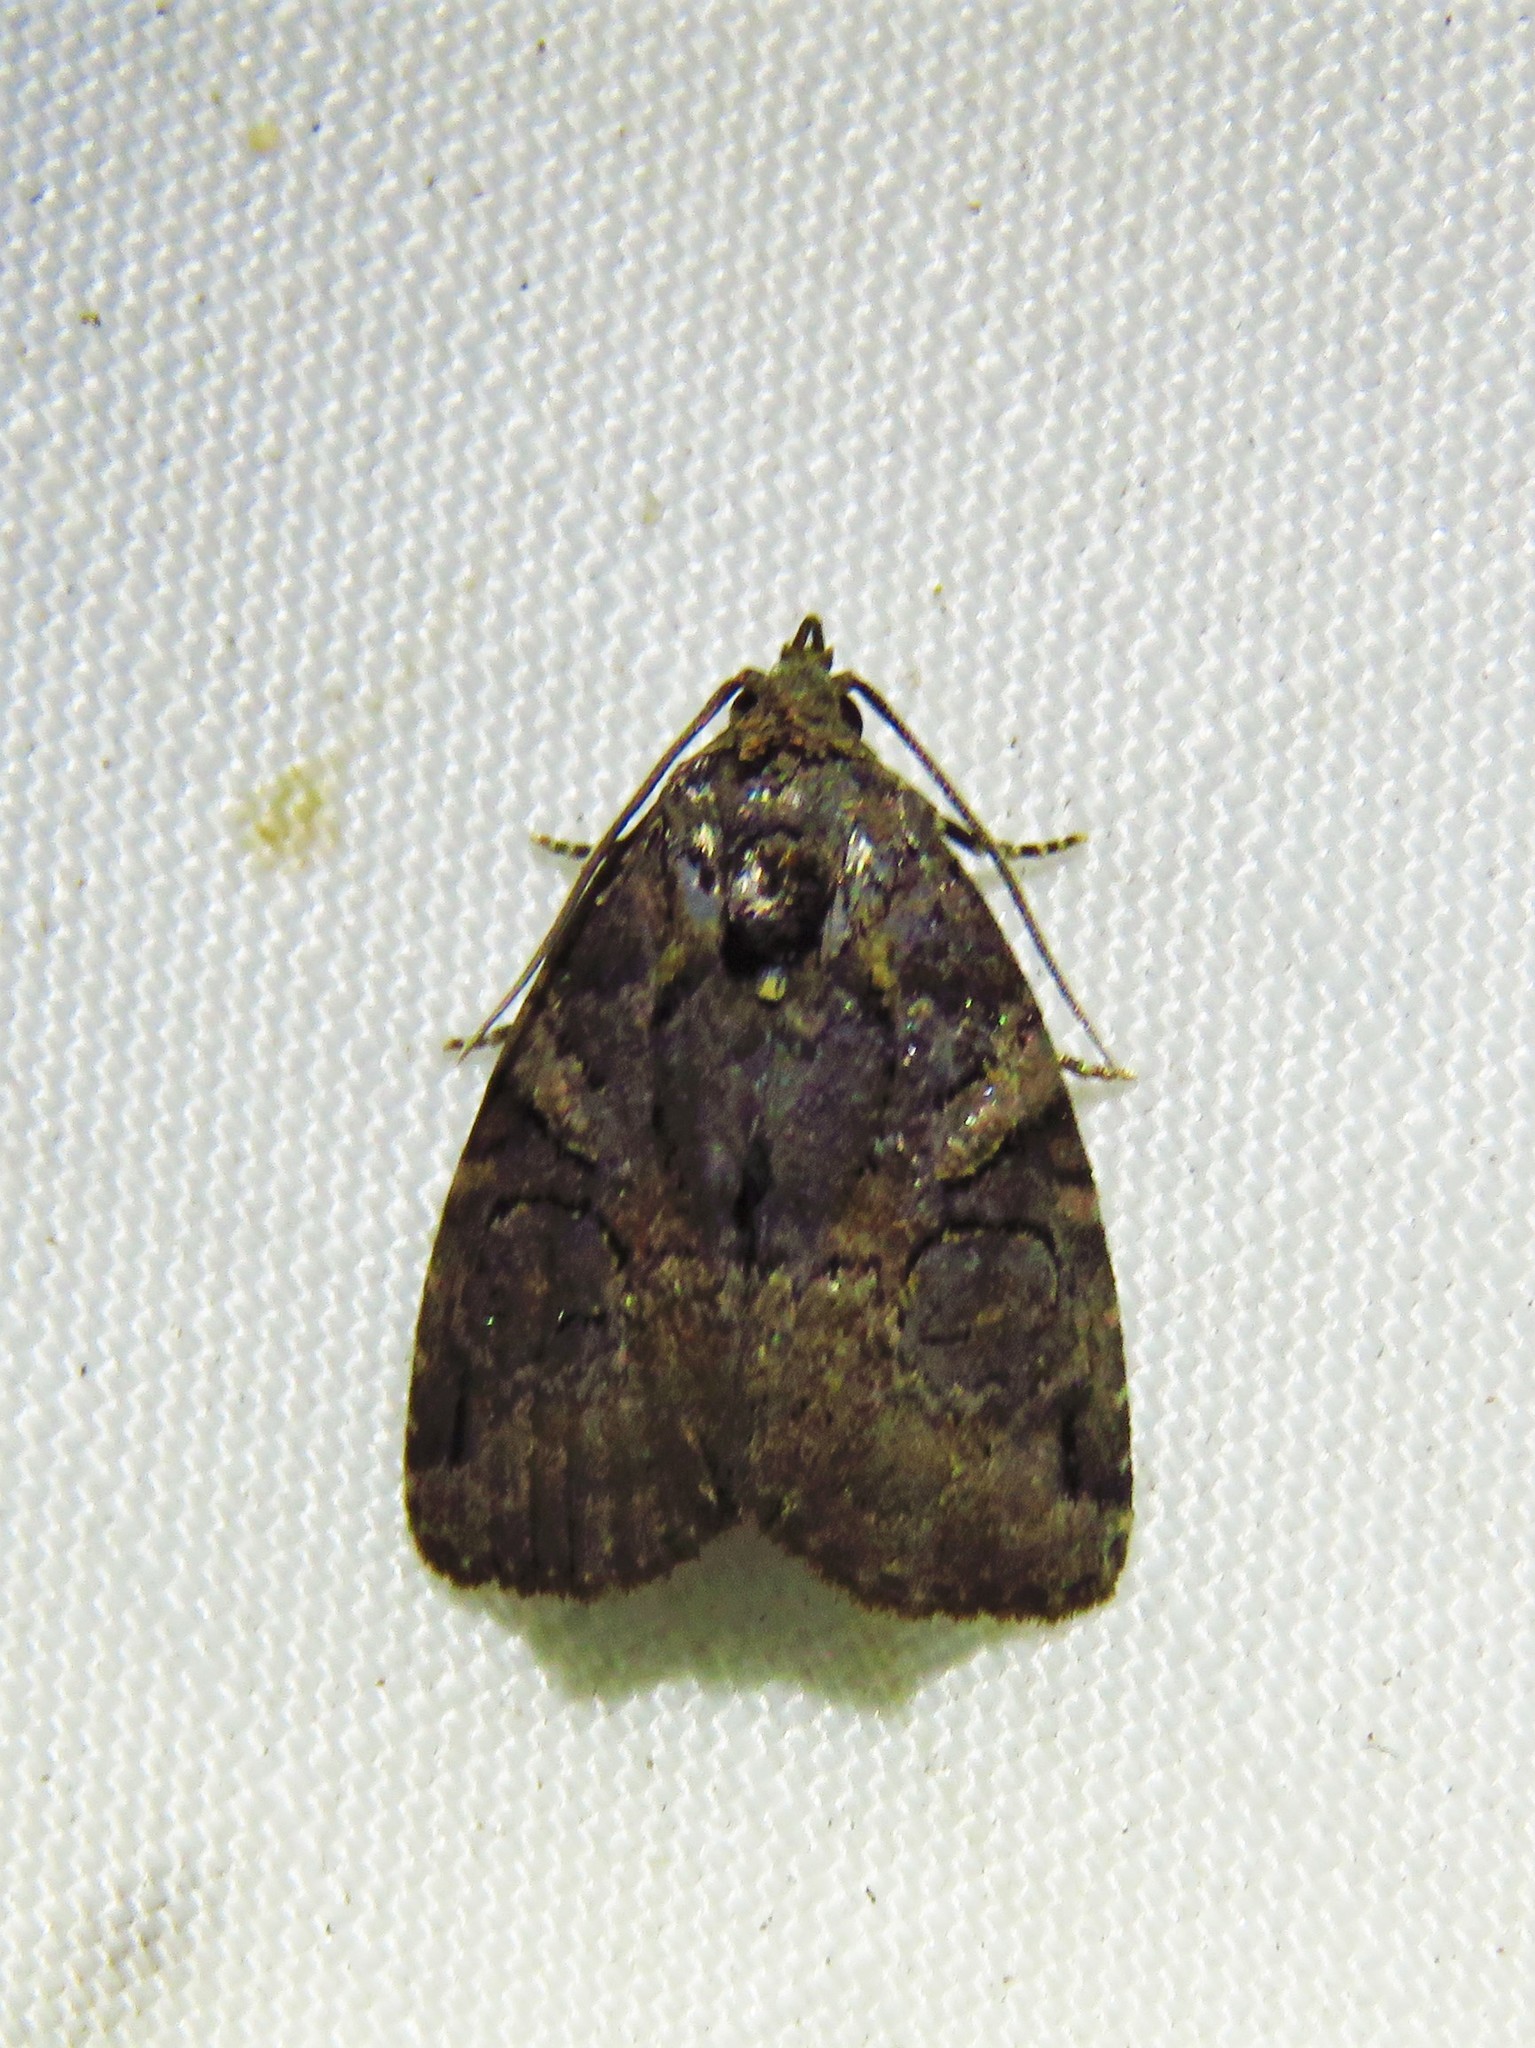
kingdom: Animalia
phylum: Arthropoda
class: Insecta
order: Lepidoptera
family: Noctuidae
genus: Pseudeustrotia
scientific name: Pseudeustrotia indeterminata
